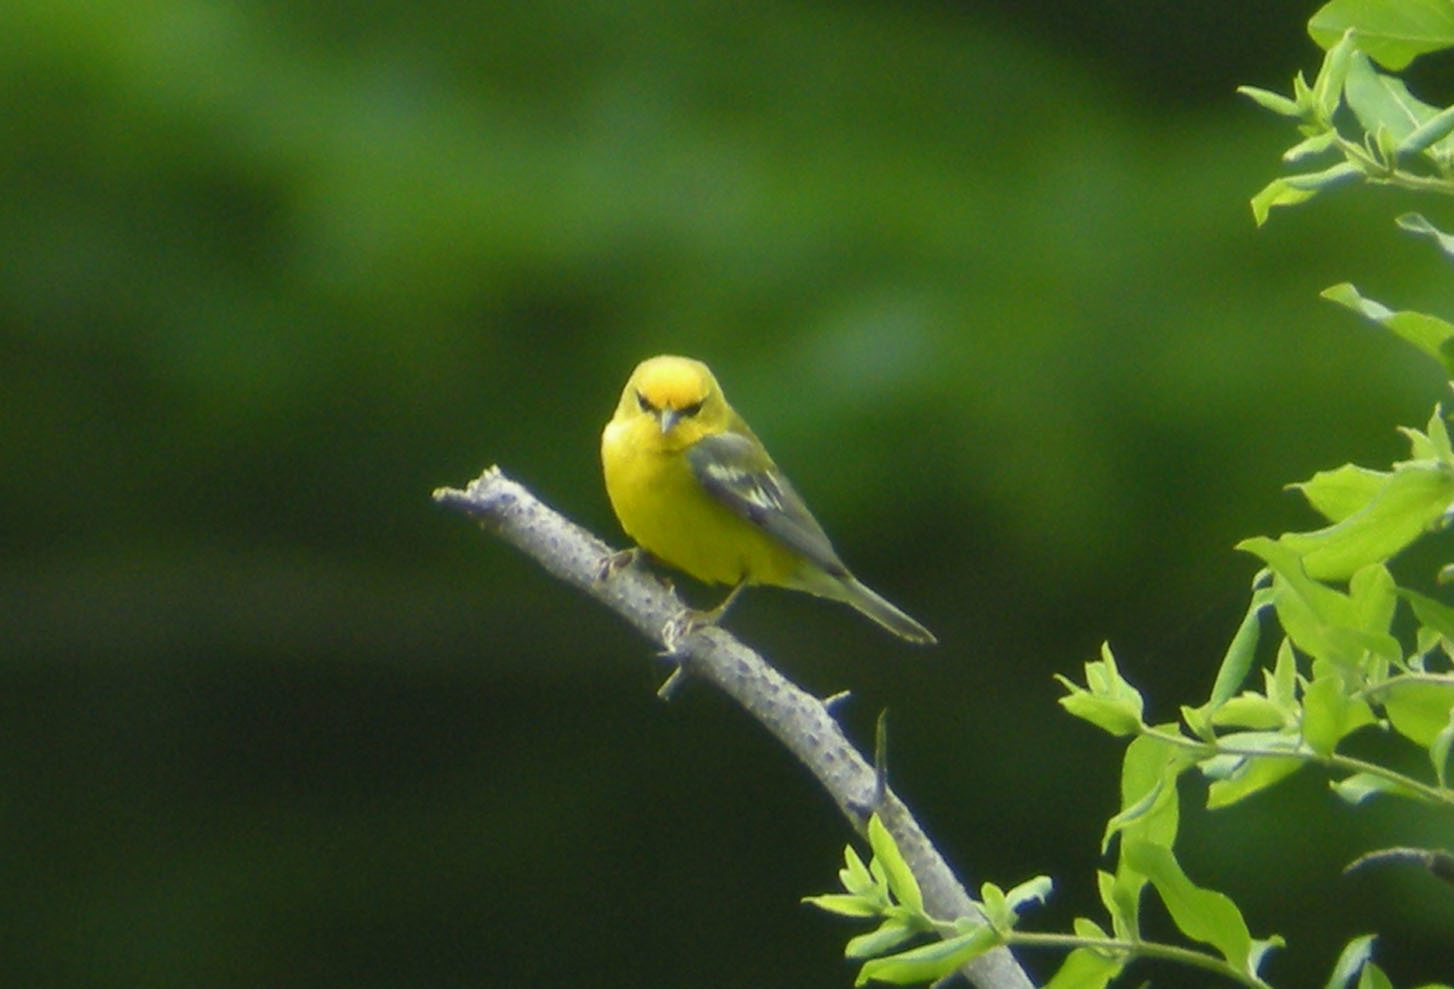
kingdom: Animalia
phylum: Chordata
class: Aves
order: Passeriformes
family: Parulidae
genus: Vermivora
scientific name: Vermivora cyanoptera
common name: Blue-winged warbler
